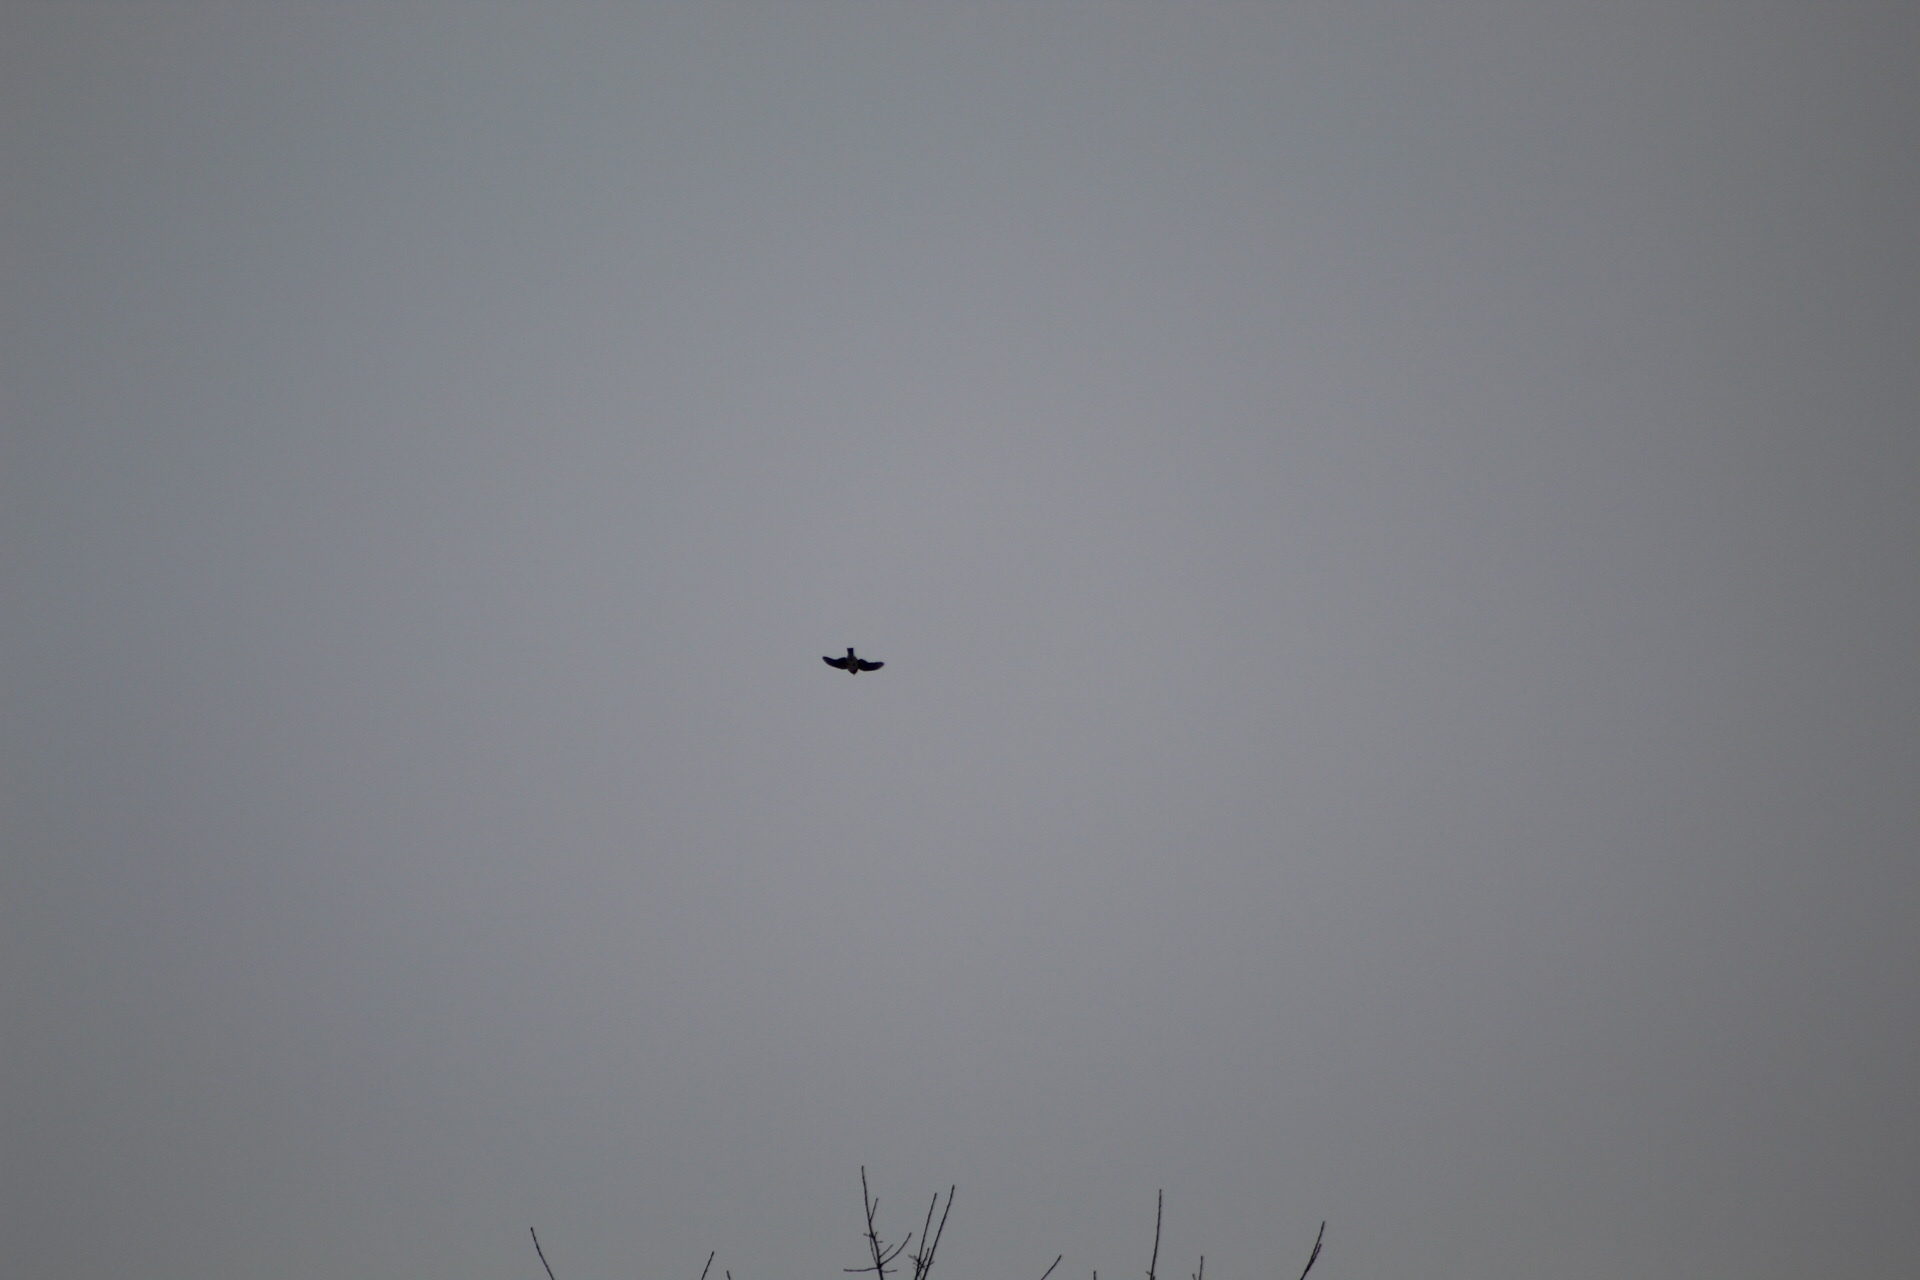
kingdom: Animalia
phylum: Chordata
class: Aves
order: Passeriformes
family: Turdidae
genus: Sialia
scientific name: Sialia sialis
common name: Eastern bluebird
